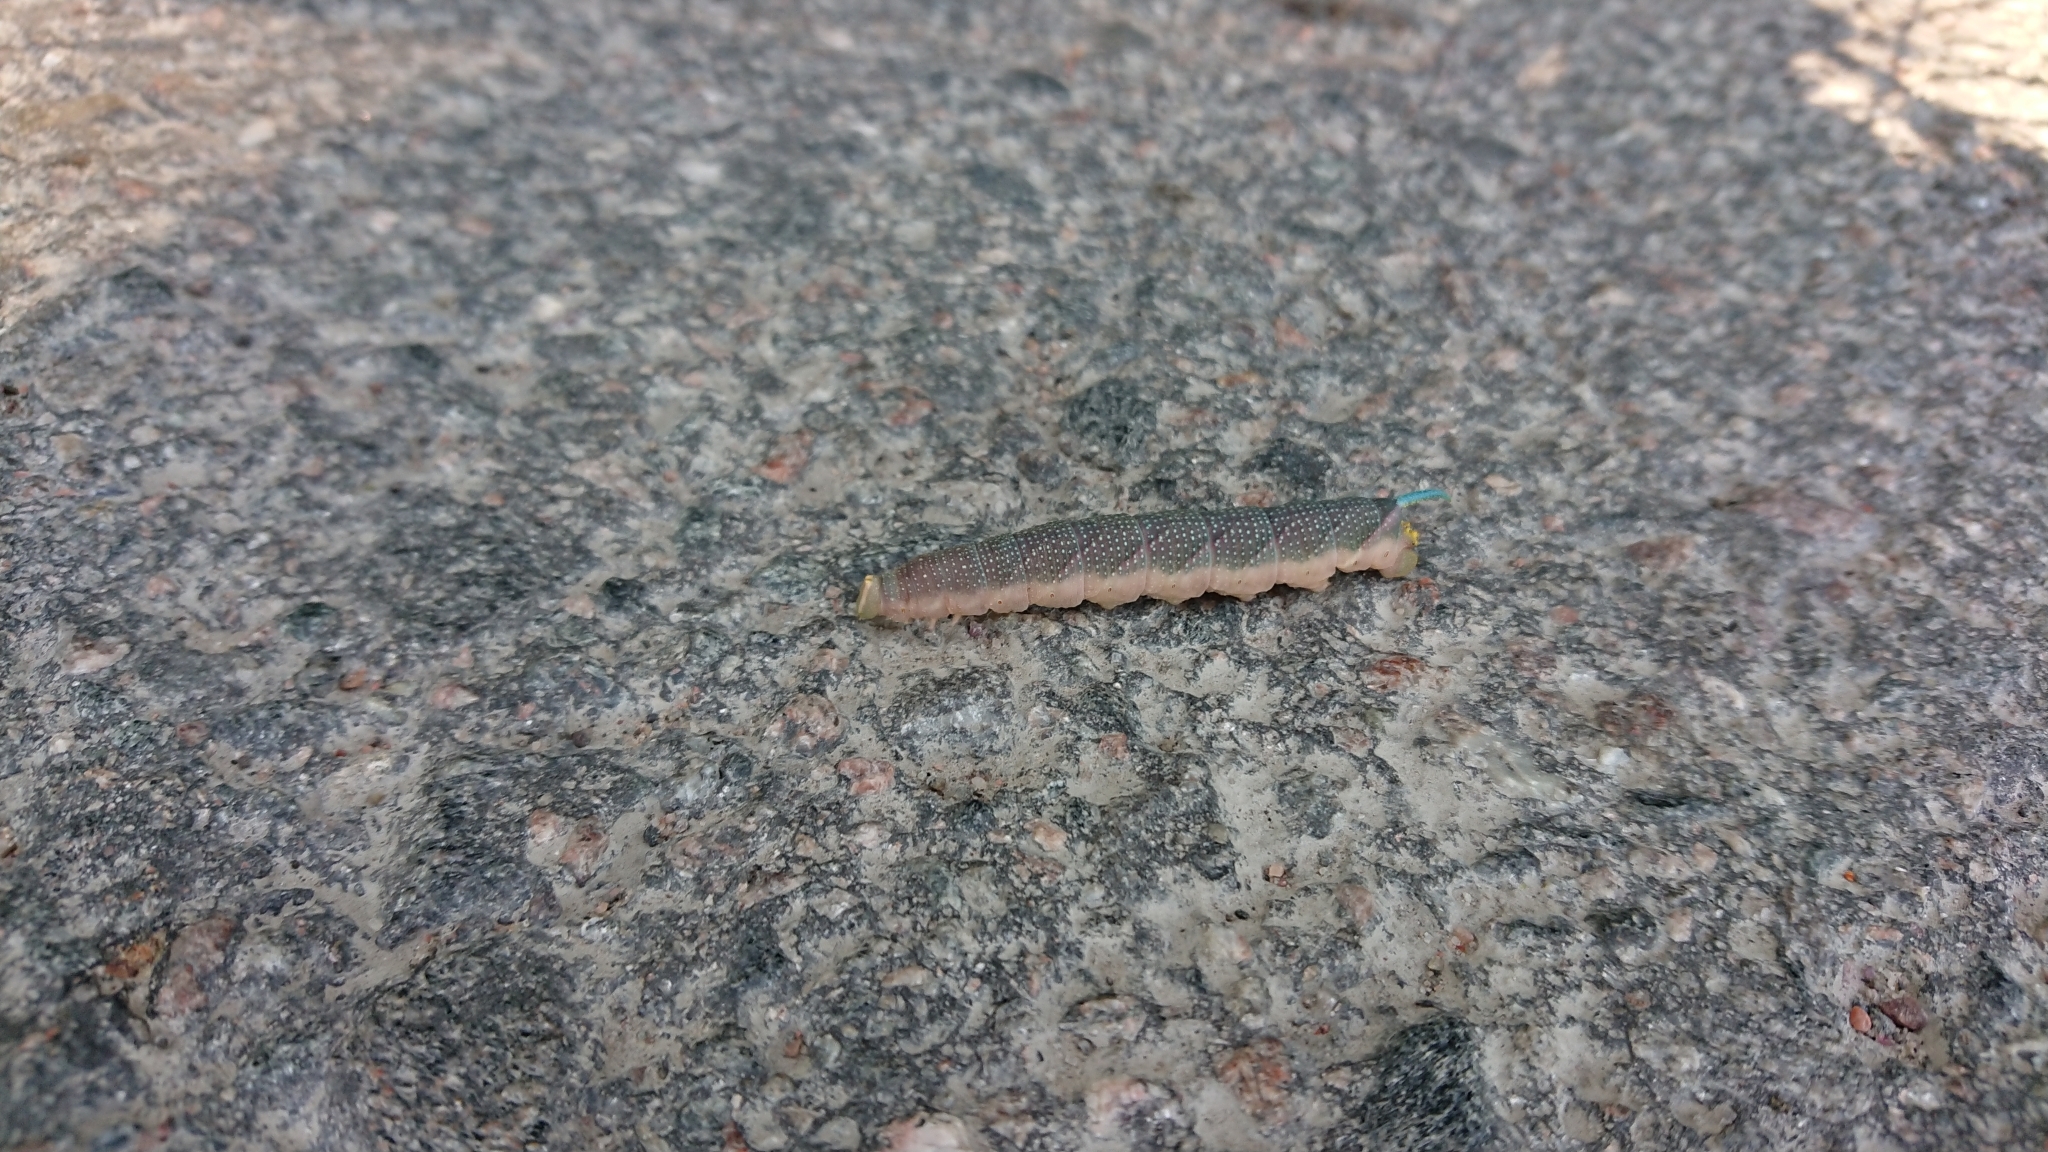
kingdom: Animalia
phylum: Arthropoda
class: Insecta
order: Lepidoptera
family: Sphingidae
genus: Mimas
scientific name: Mimas tiliae
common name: Lime hawk-moth
